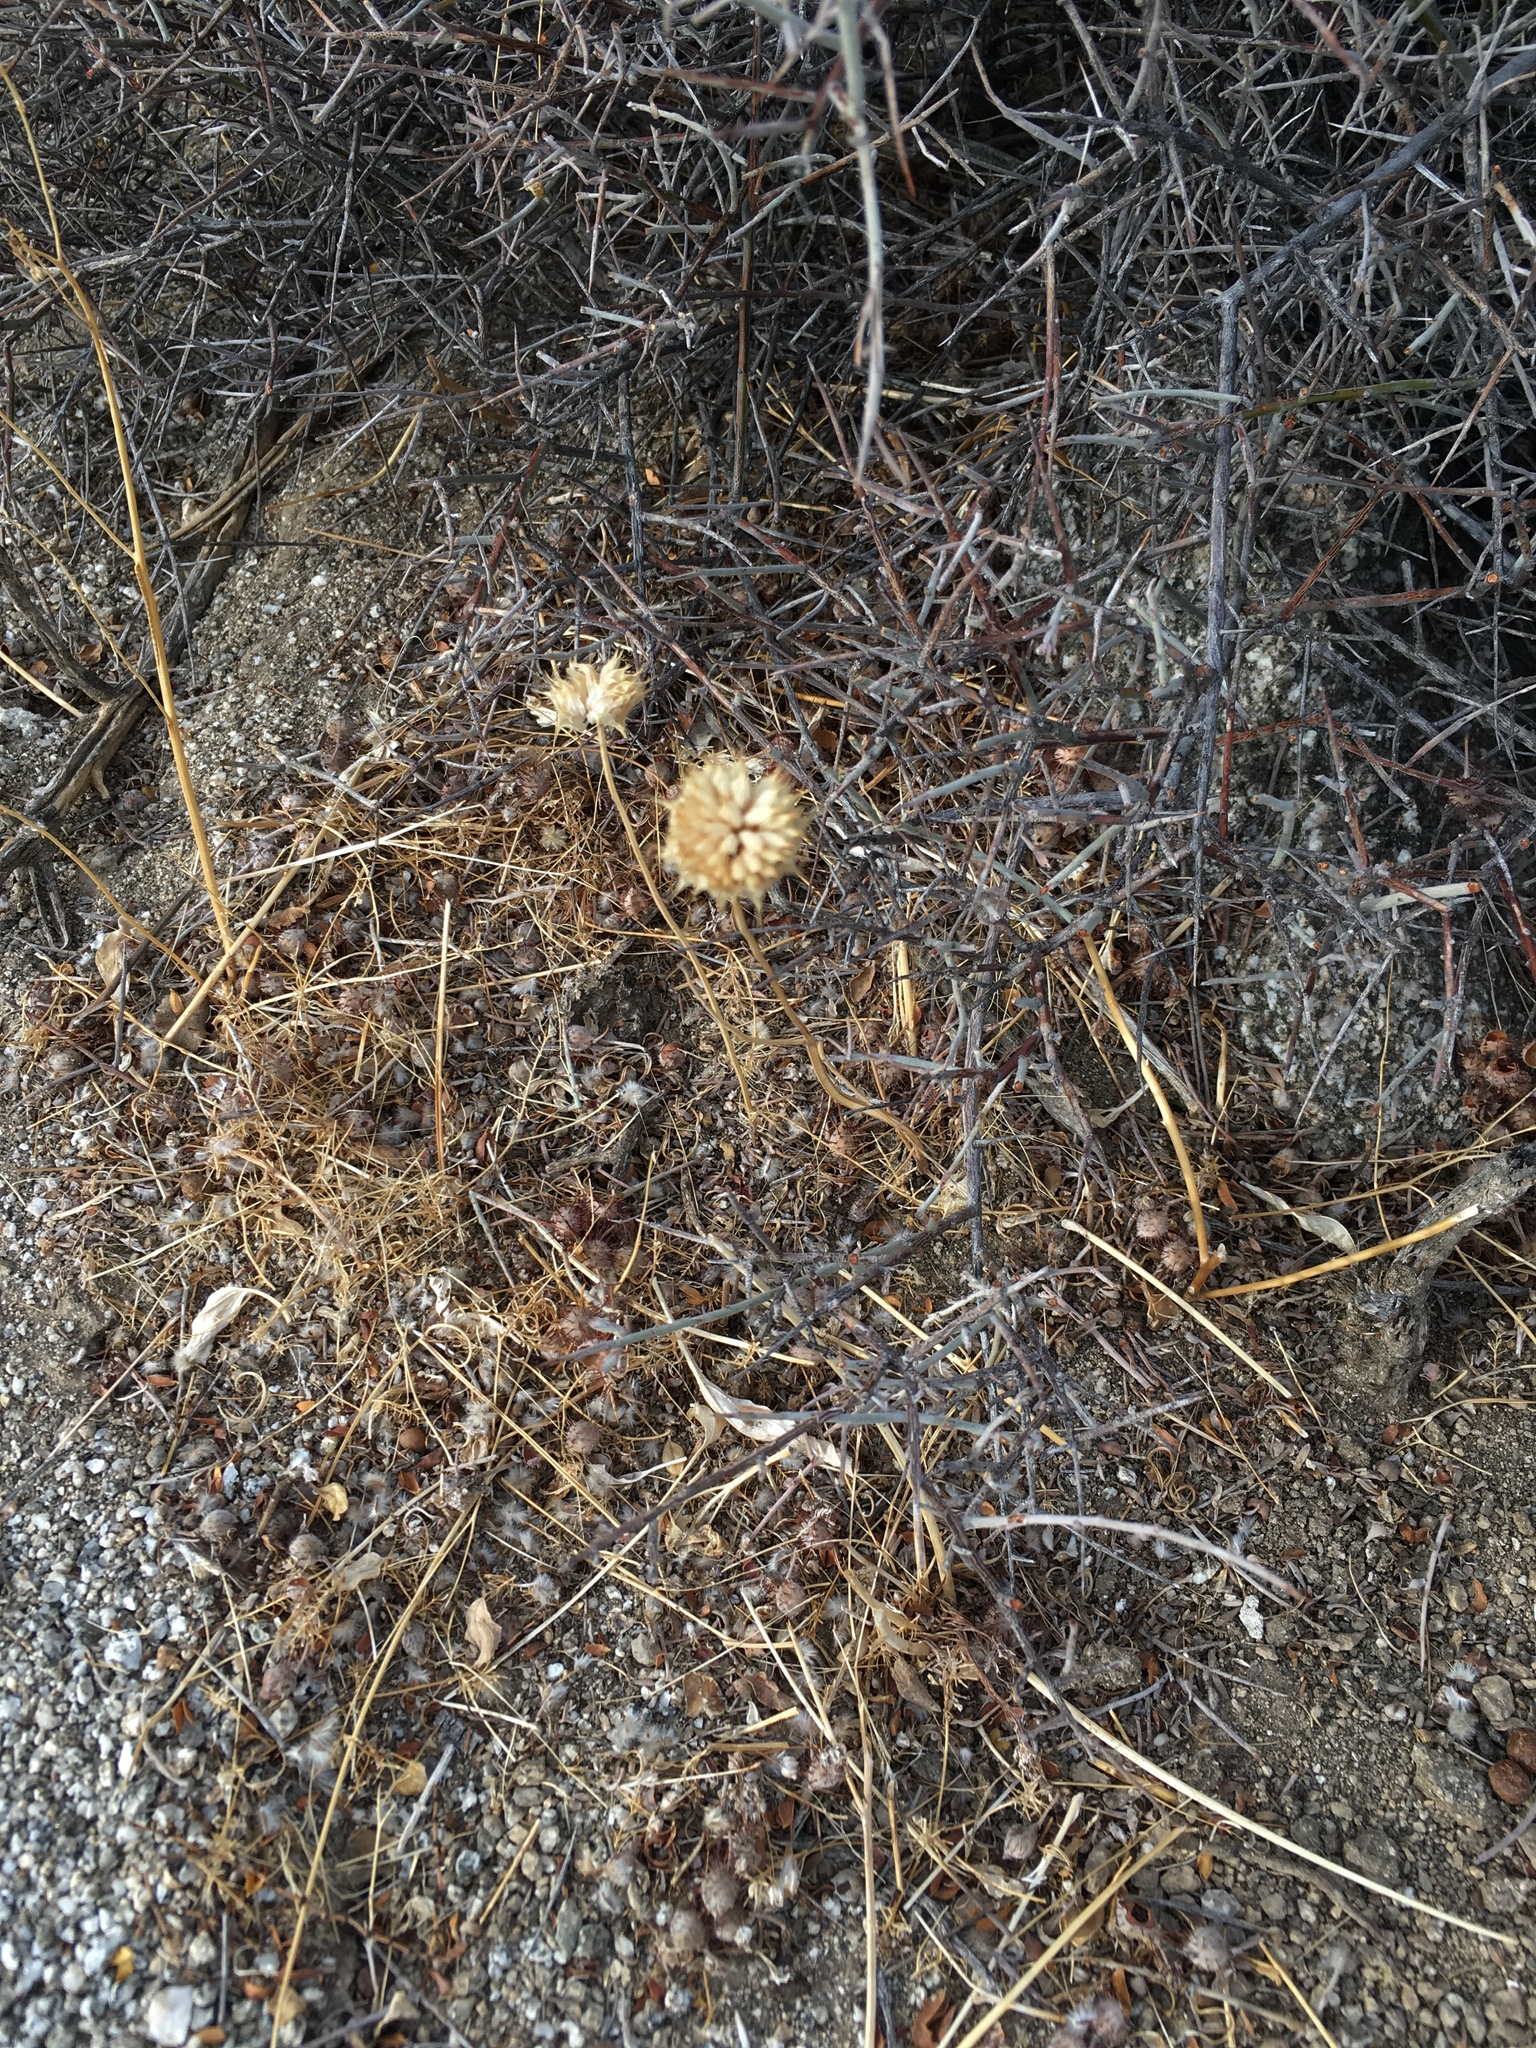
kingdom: Plantae
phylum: Tracheophyta
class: Magnoliopsida
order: Lamiales
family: Lamiaceae
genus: Salvia
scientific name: Salvia columbariae
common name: Chia
